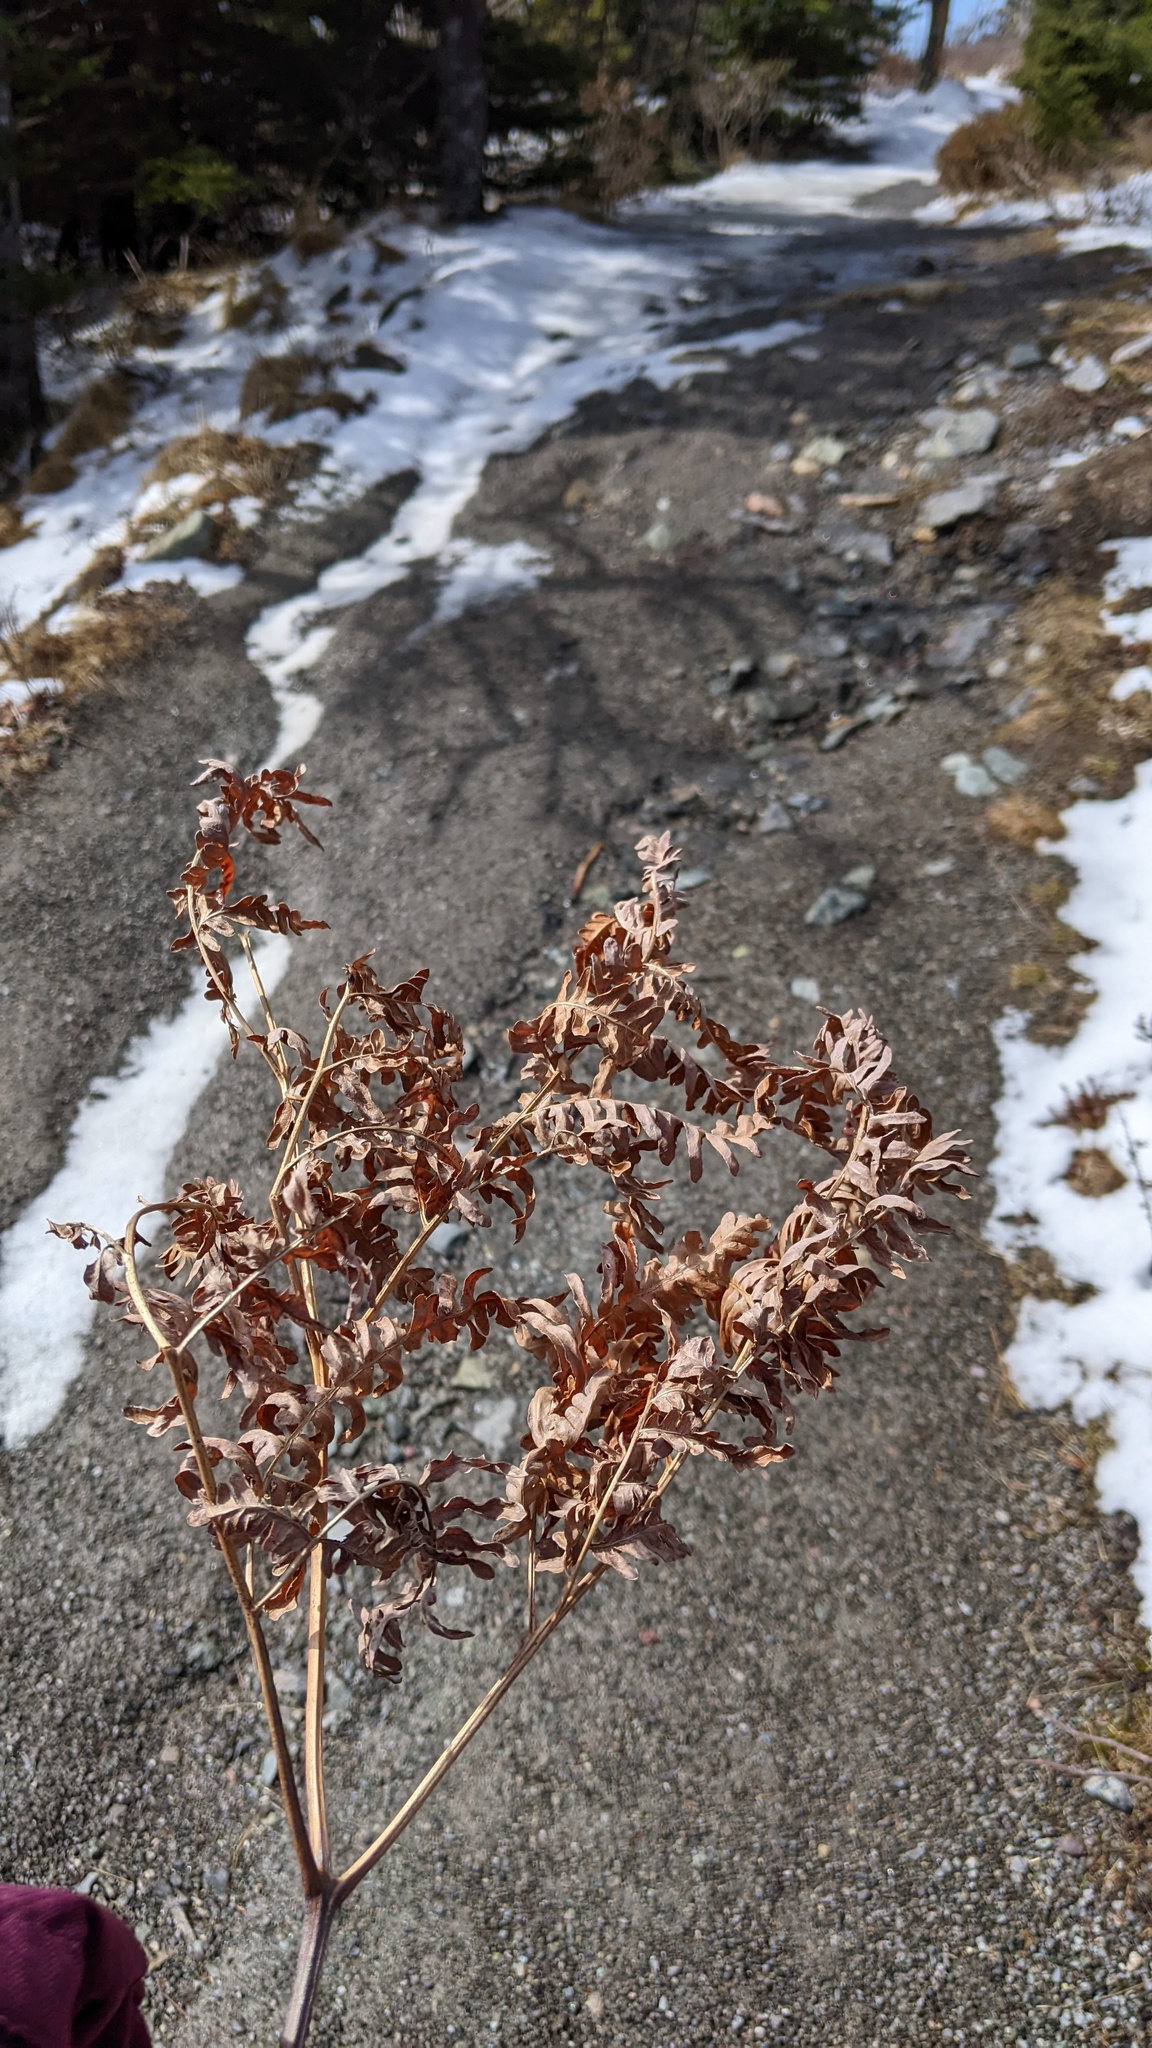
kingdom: Plantae
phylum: Tracheophyta
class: Polypodiopsida
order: Polypodiales
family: Dennstaedtiaceae
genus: Pteridium
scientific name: Pteridium aquilinum
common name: Bracken
